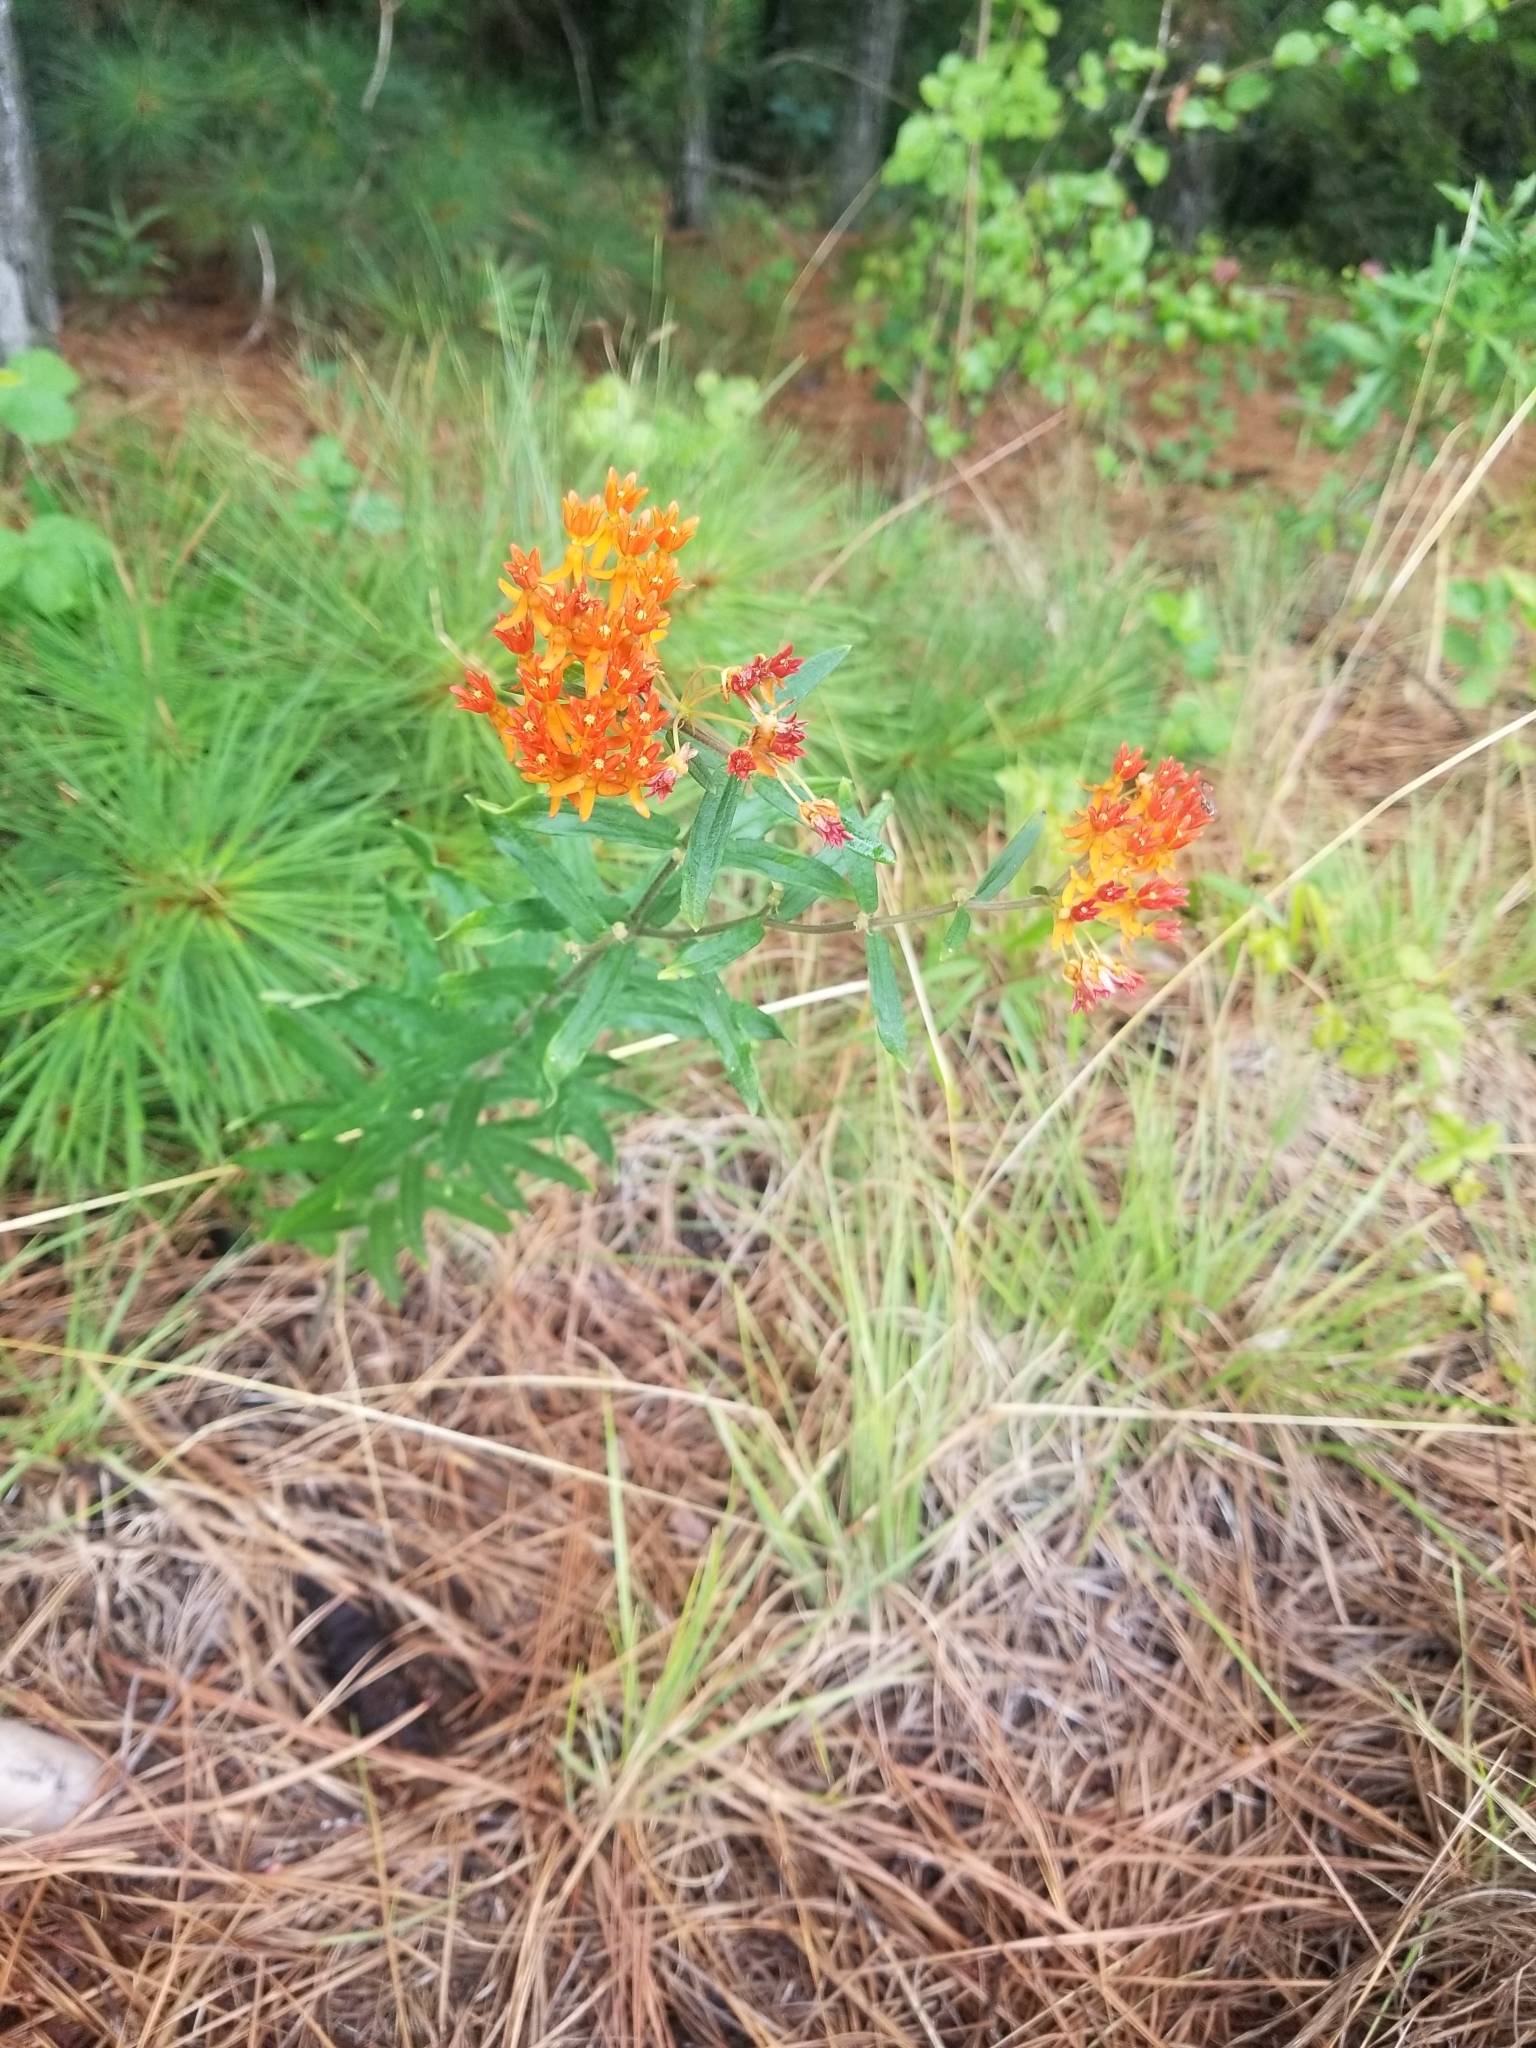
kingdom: Plantae
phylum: Tracheophyta
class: Magnoliopsida
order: Gentianales
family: Apocynaceae
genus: Asclepias
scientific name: Asclepias tuberosa
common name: Butterfly milkweed
